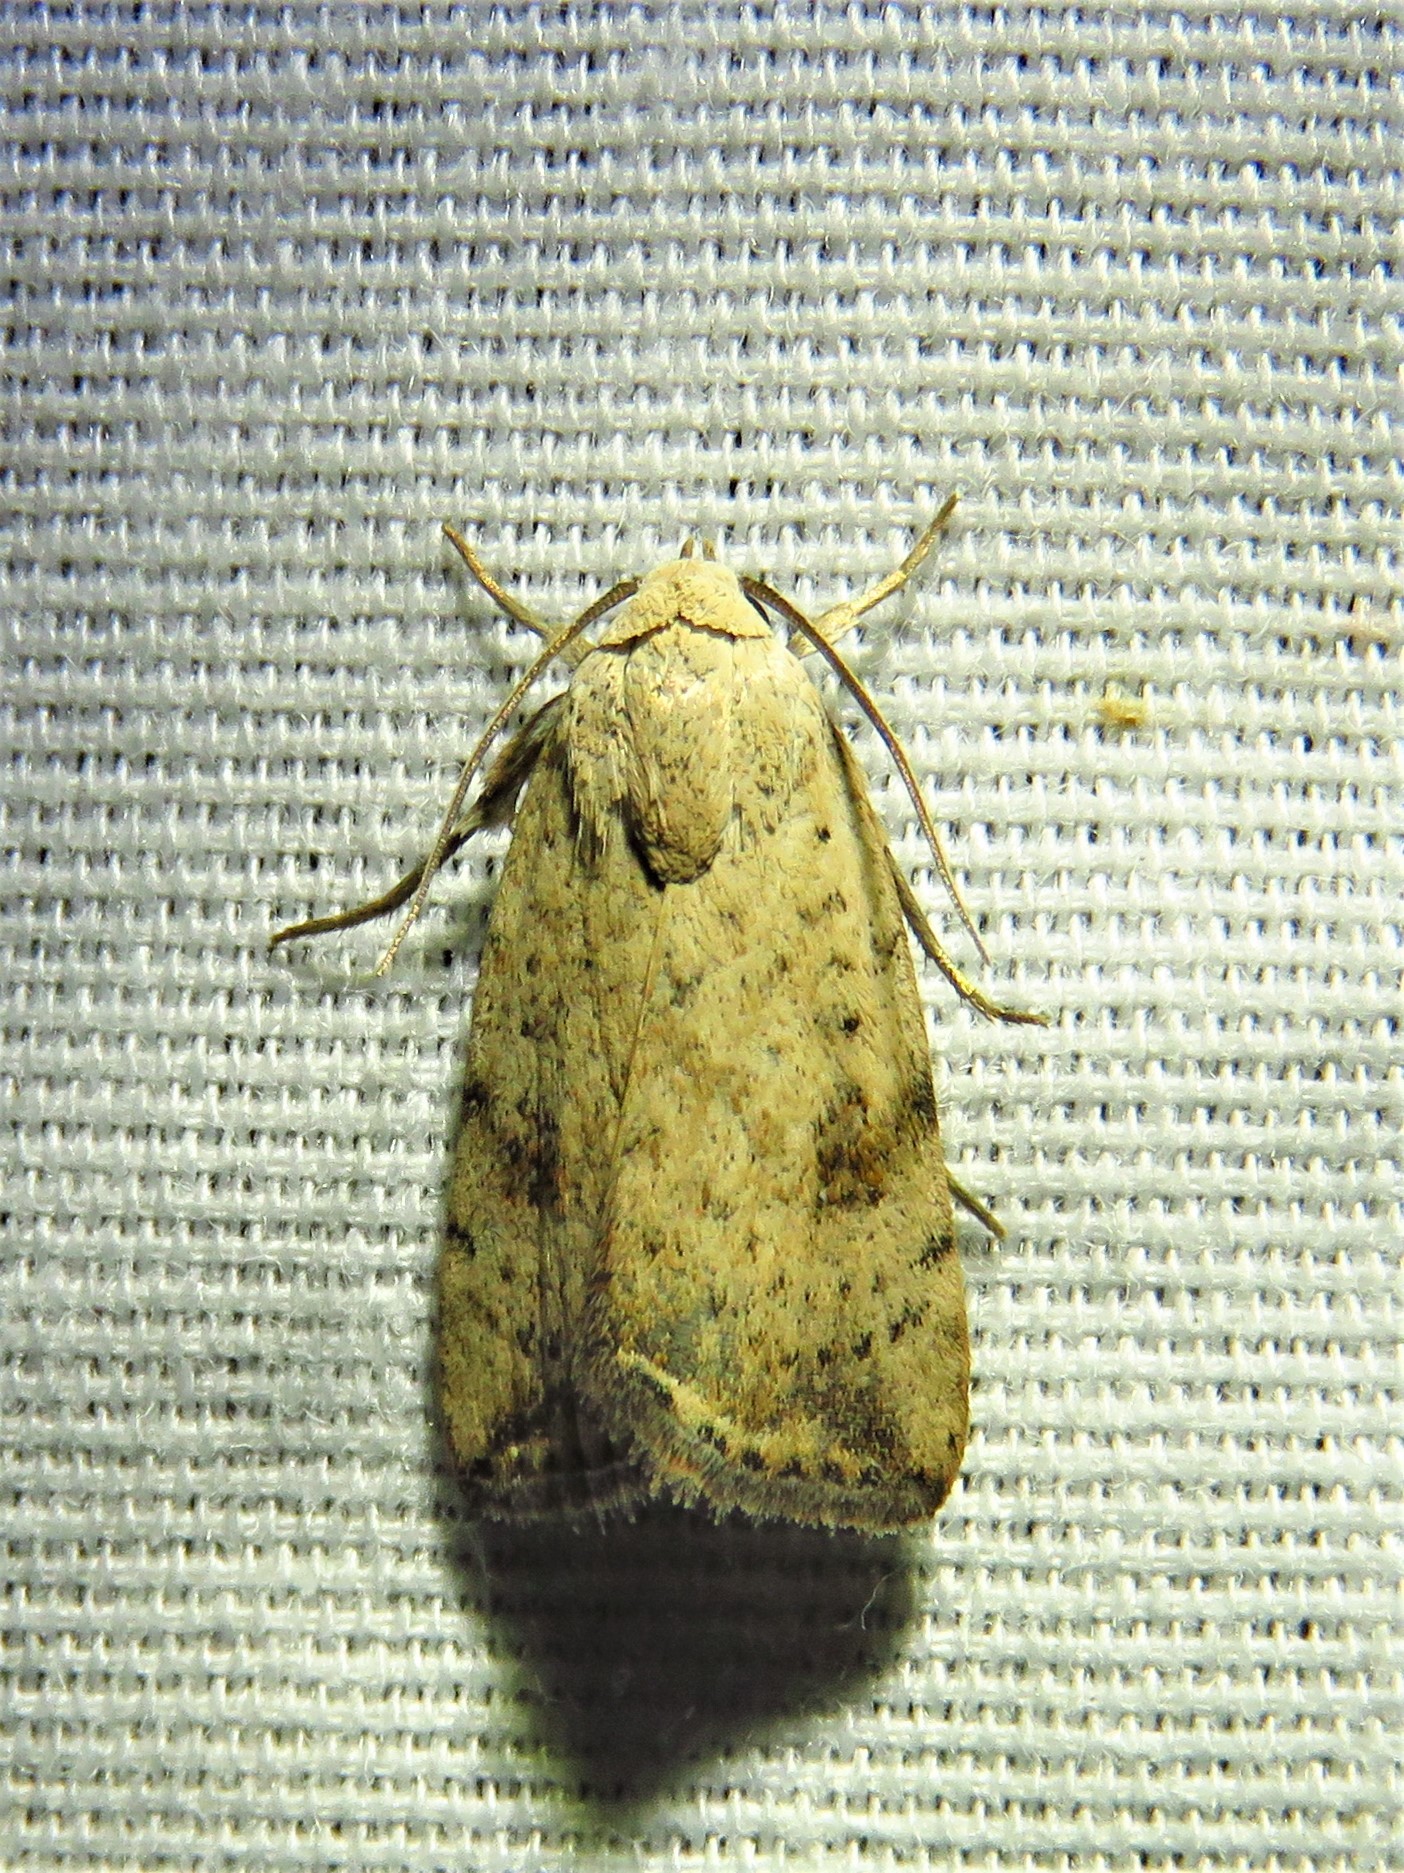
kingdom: Animalia
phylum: Arthropoda
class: Insecta
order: Lepidoptera
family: Noctuidae
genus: Micrathetis
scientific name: Micrathetis triplex
